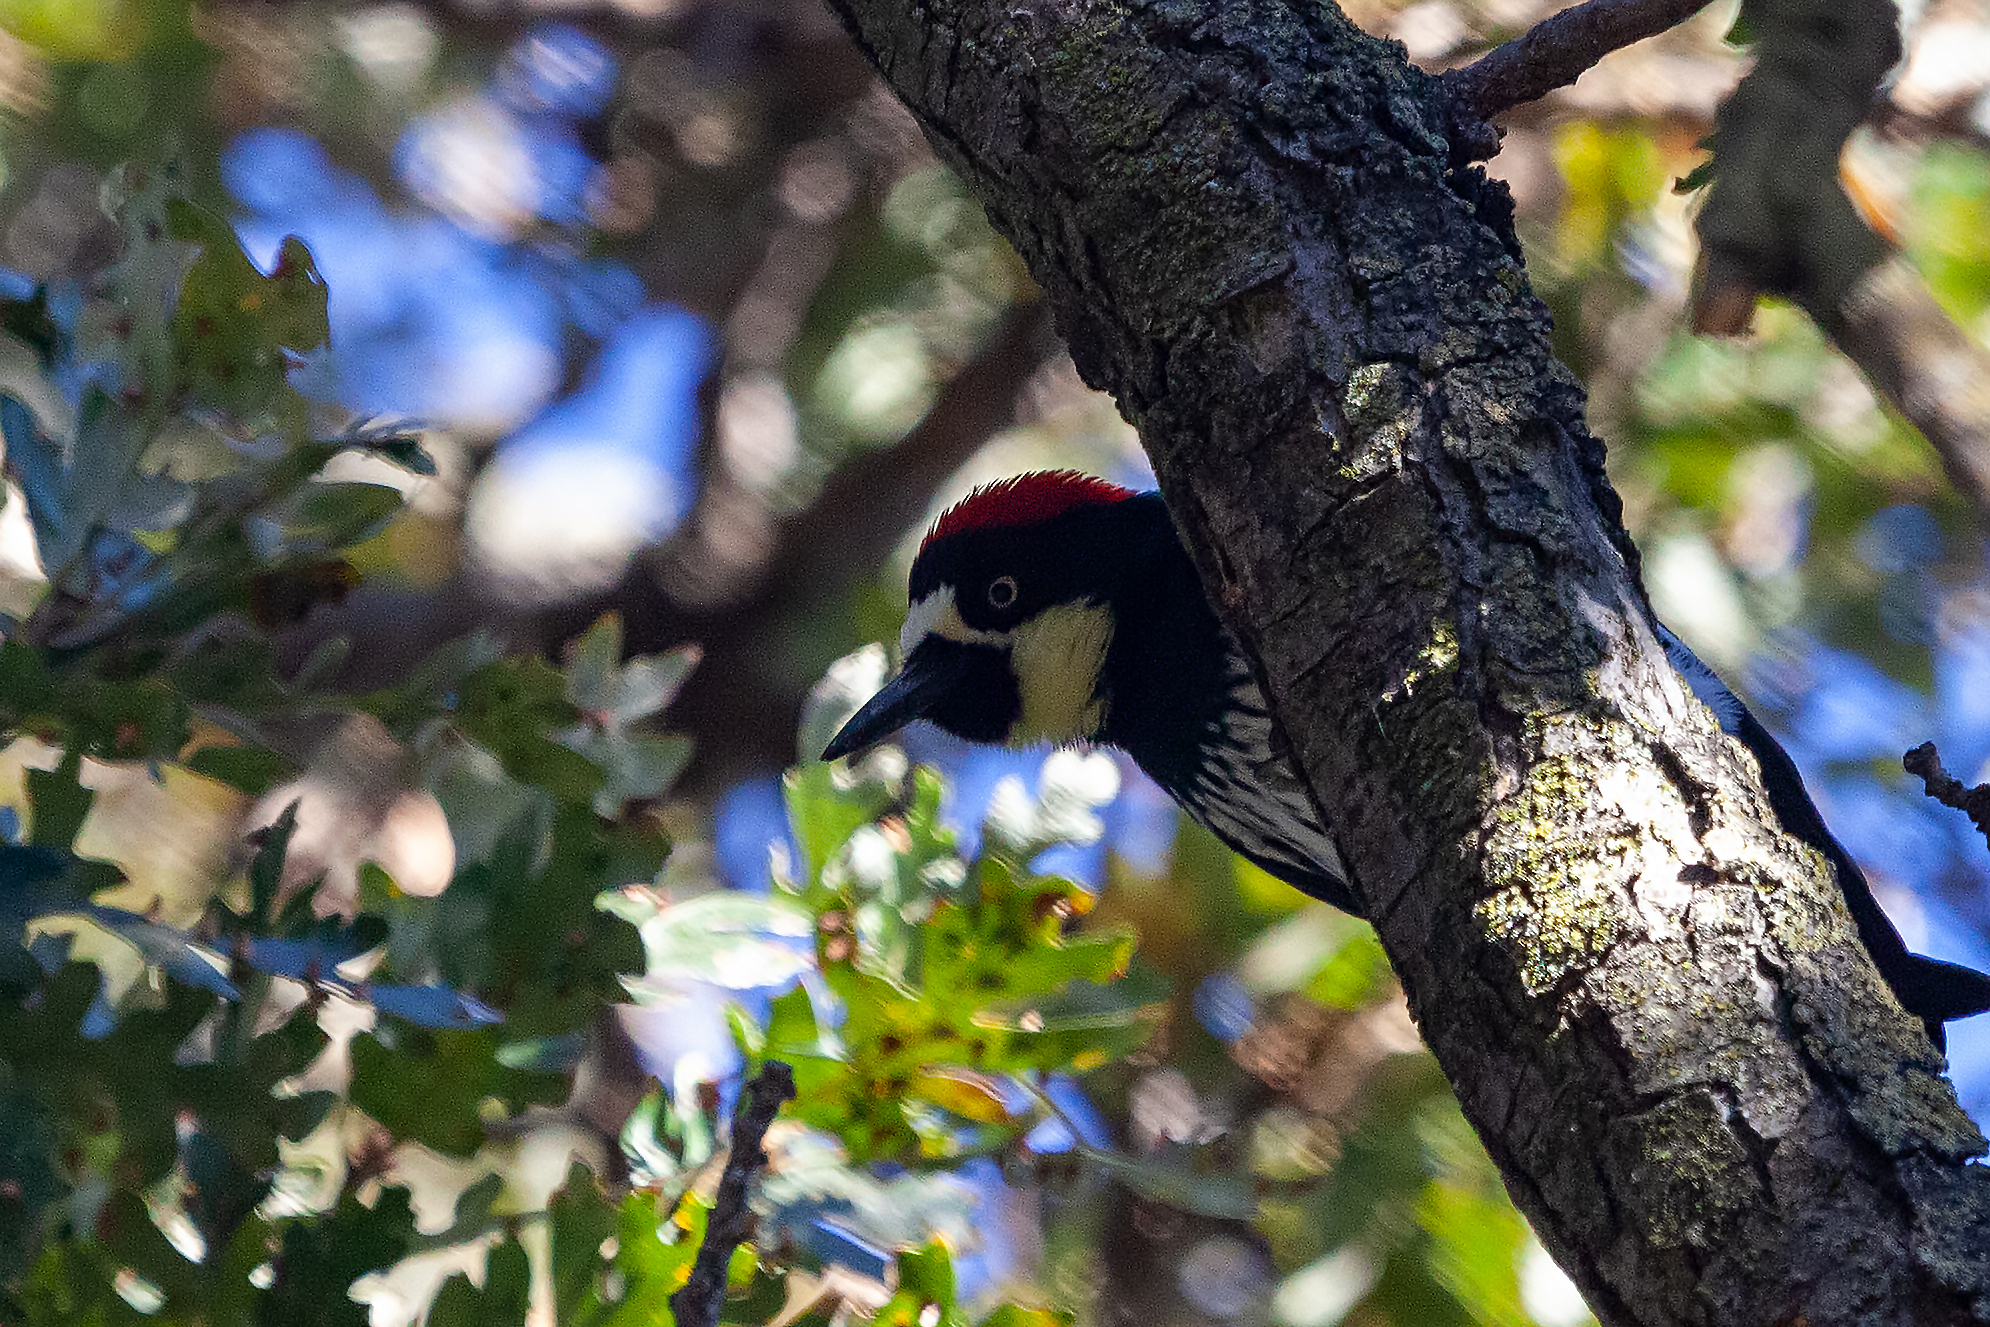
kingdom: Animalia
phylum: Chordata
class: Aves
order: Piciformes
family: Picidae
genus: Melanerpes
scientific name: Melanerpes formicivorus
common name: Acorn woodpecker
